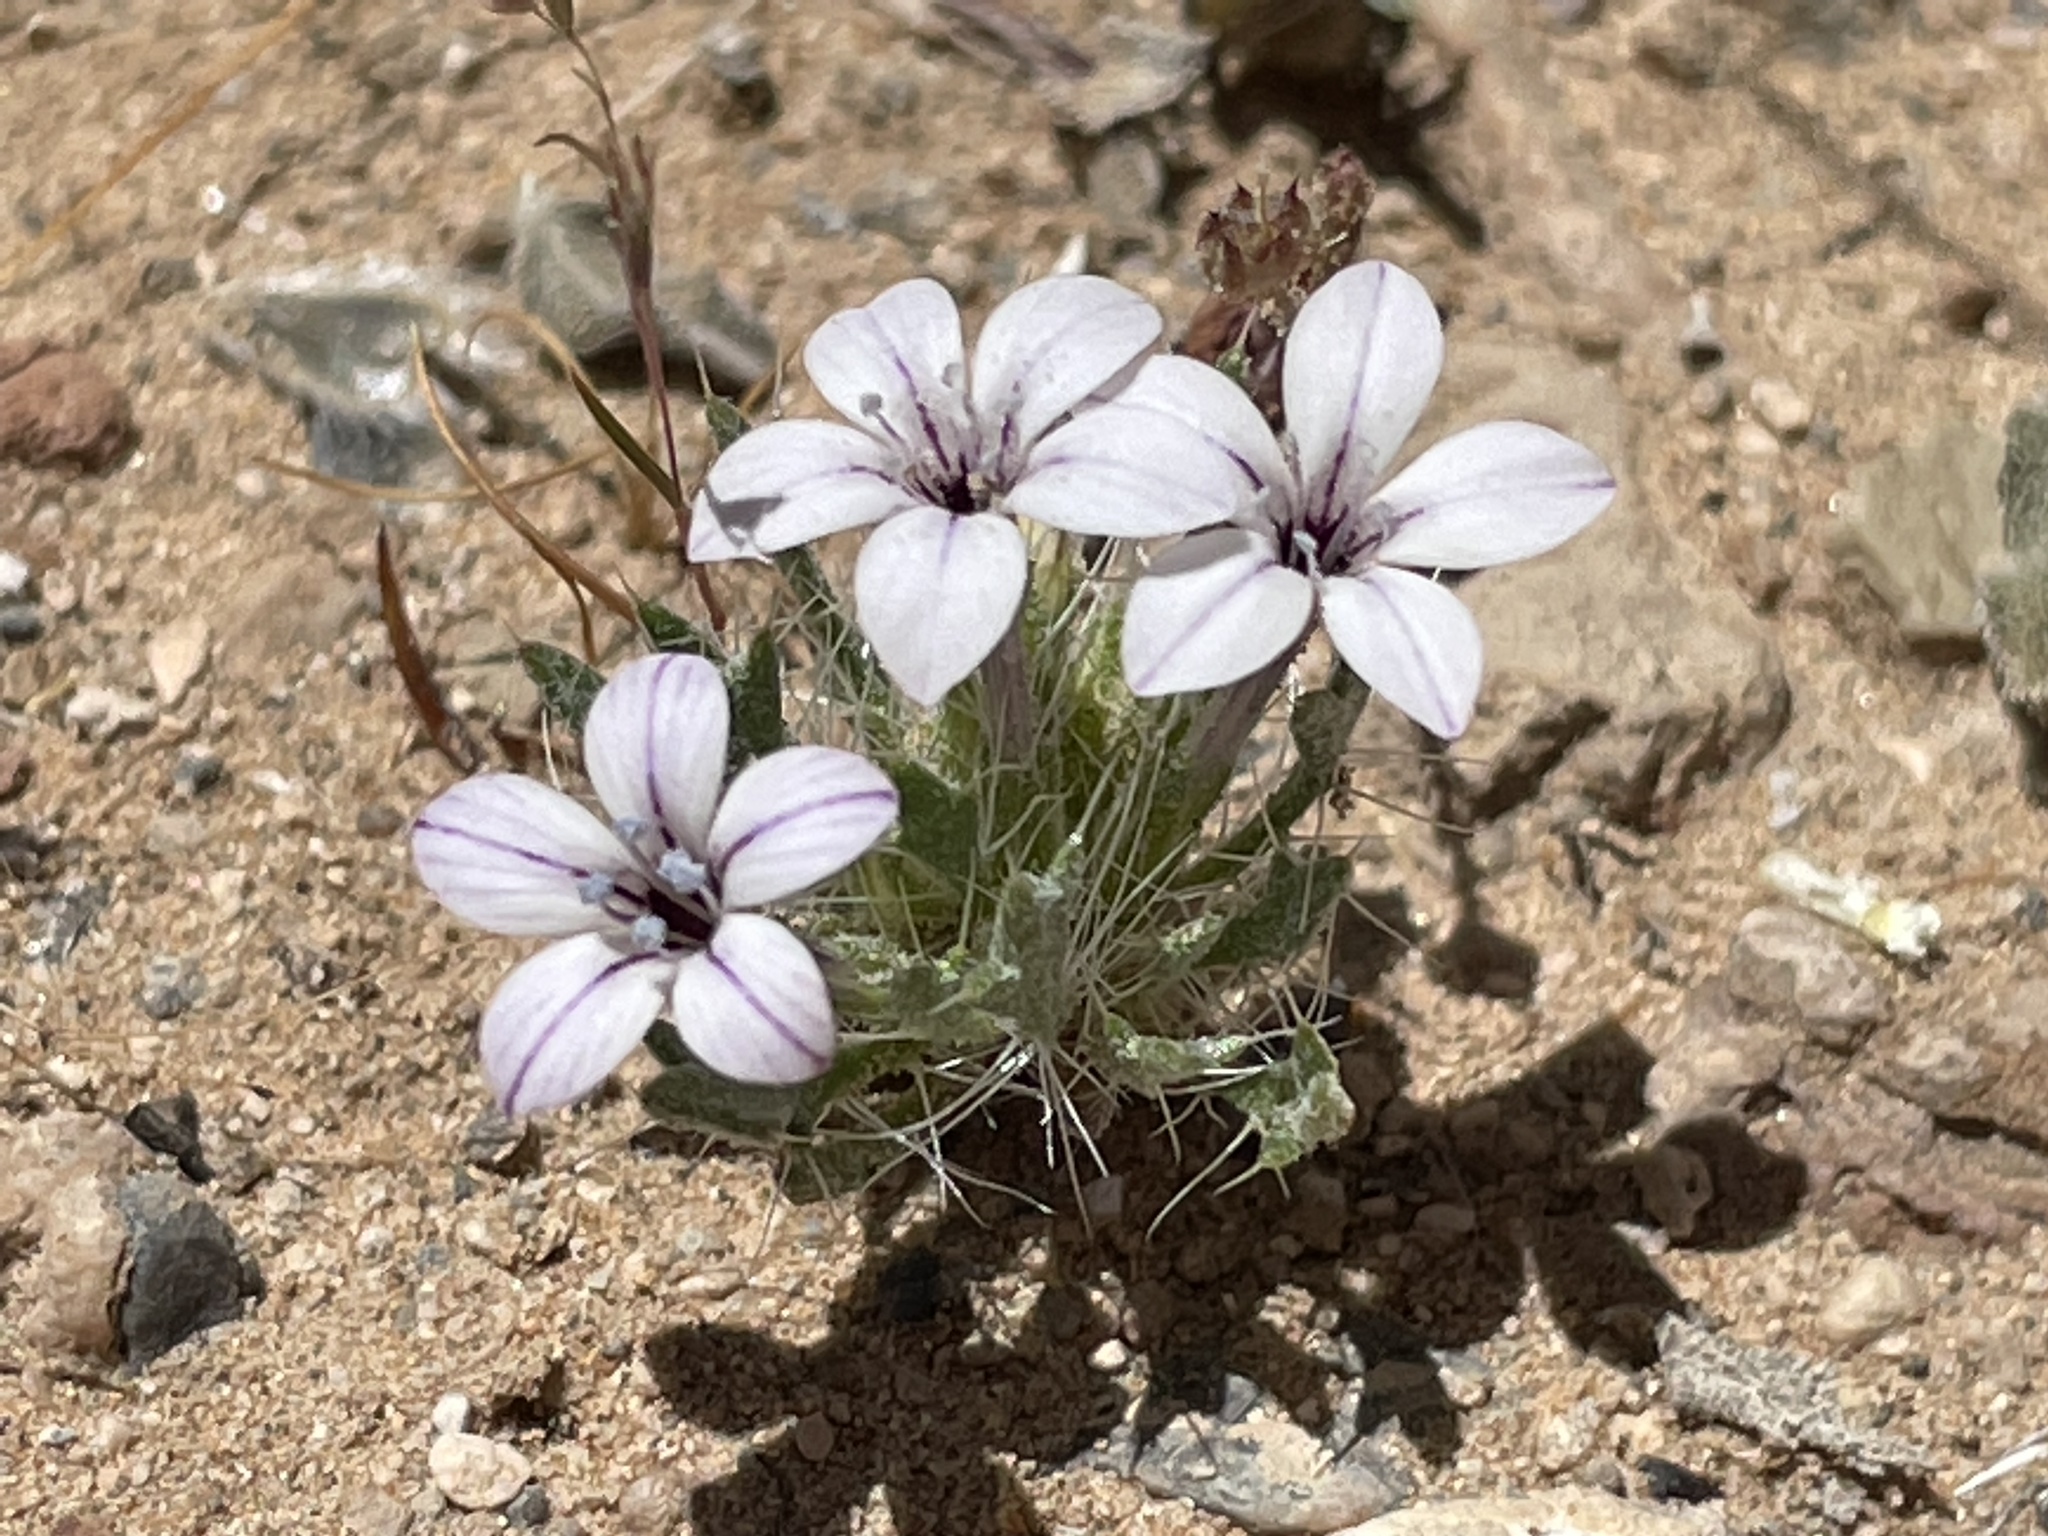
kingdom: Plantae
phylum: Tracheophyta
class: Magnoliopsida
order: Ericales
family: Polemoniaceae
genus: Langloisia
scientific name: Langloisia setosissima
